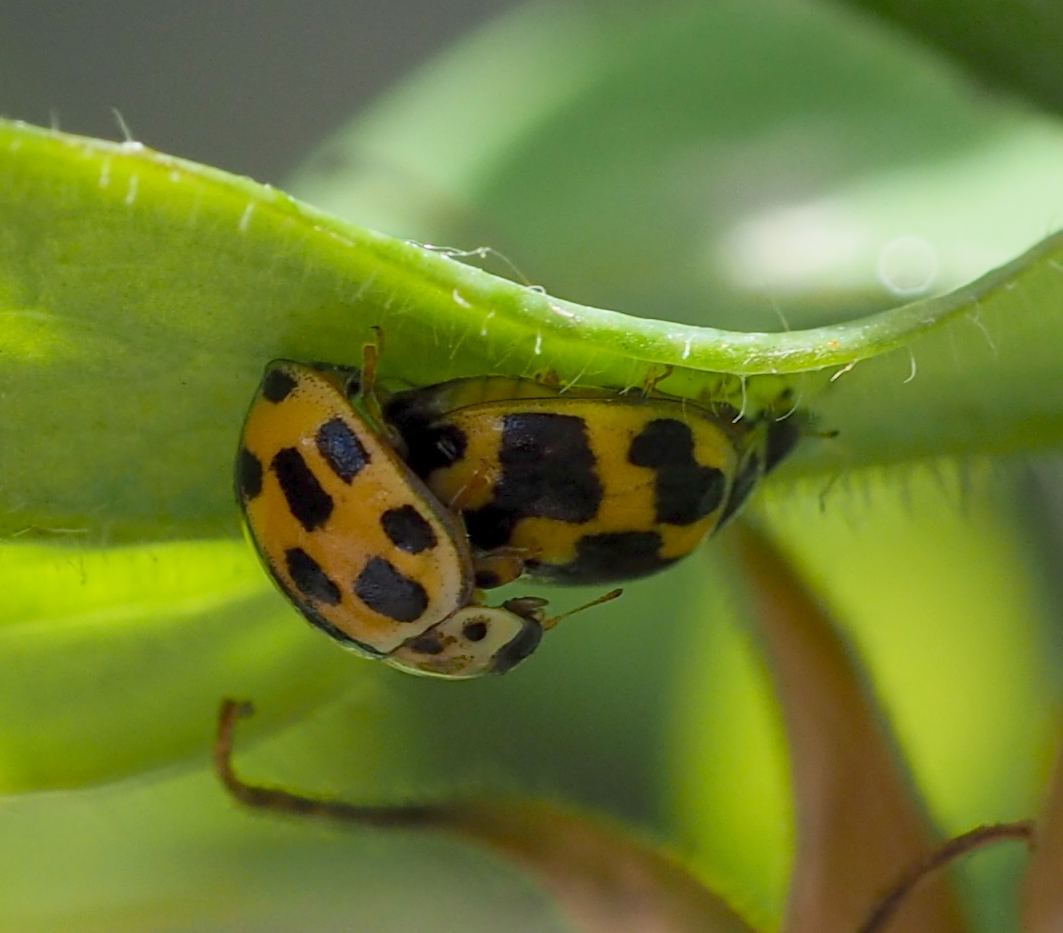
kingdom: Animalia
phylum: Arthropoda
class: Insecta
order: Coleoptera
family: Coccinellidae
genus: Propylaea
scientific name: Propylaea quatuordecimpunctata
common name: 14-spotted ladybird beetle
